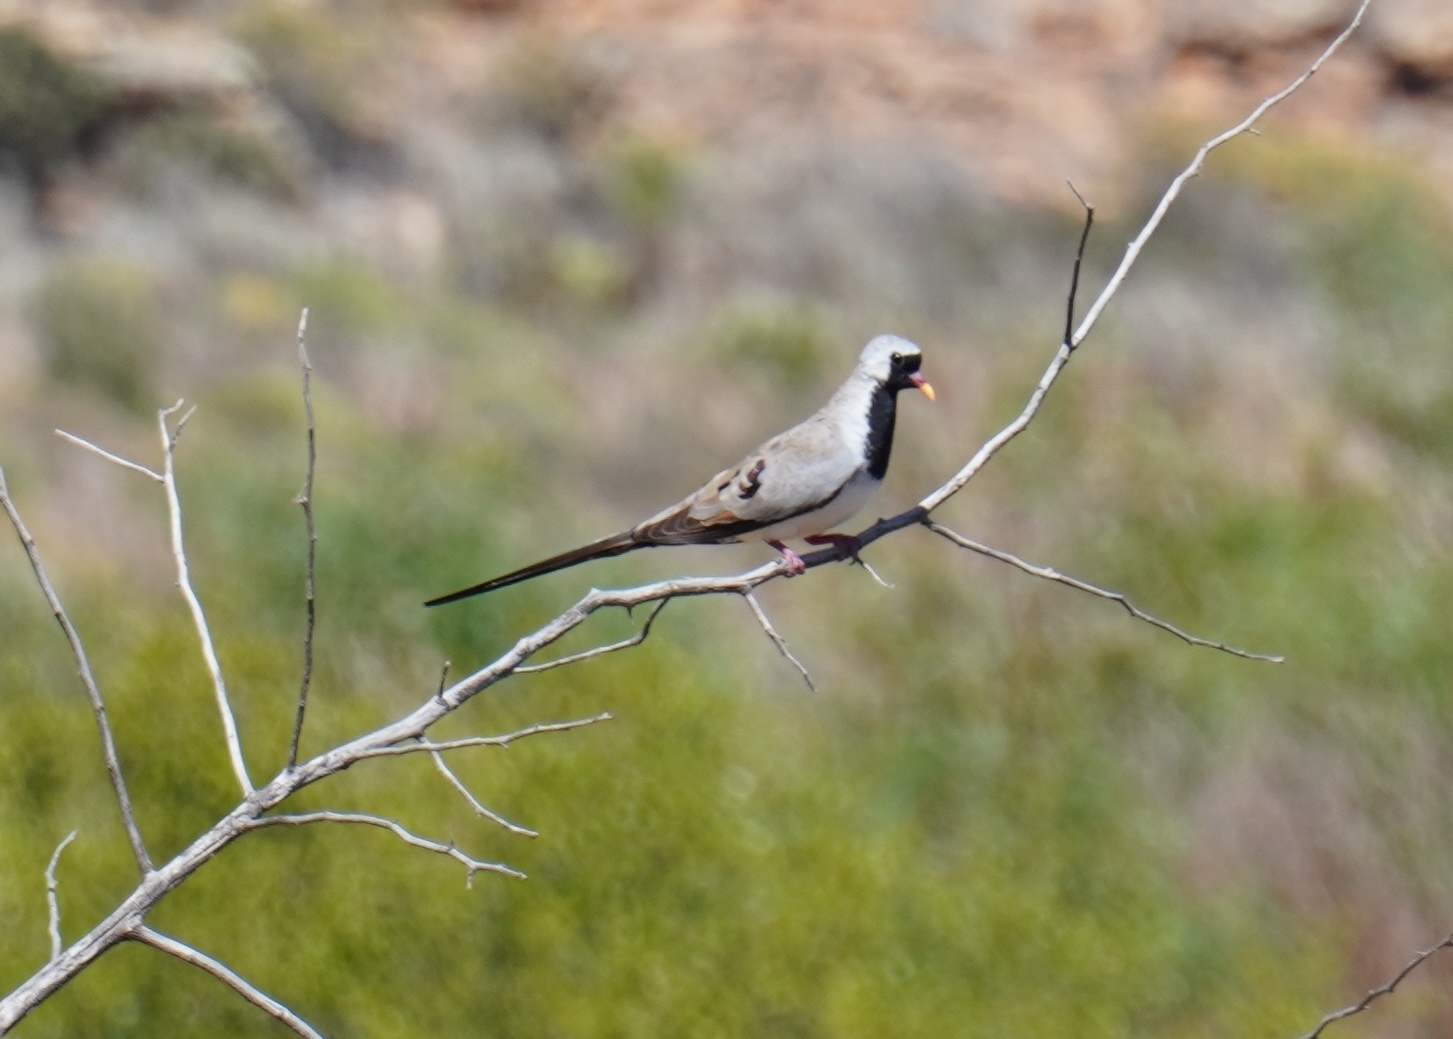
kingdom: Animalia
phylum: Chordata
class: Aves
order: Columbiformes
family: Columbidae
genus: Oena
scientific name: Oena capensis
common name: Namaqua dove
